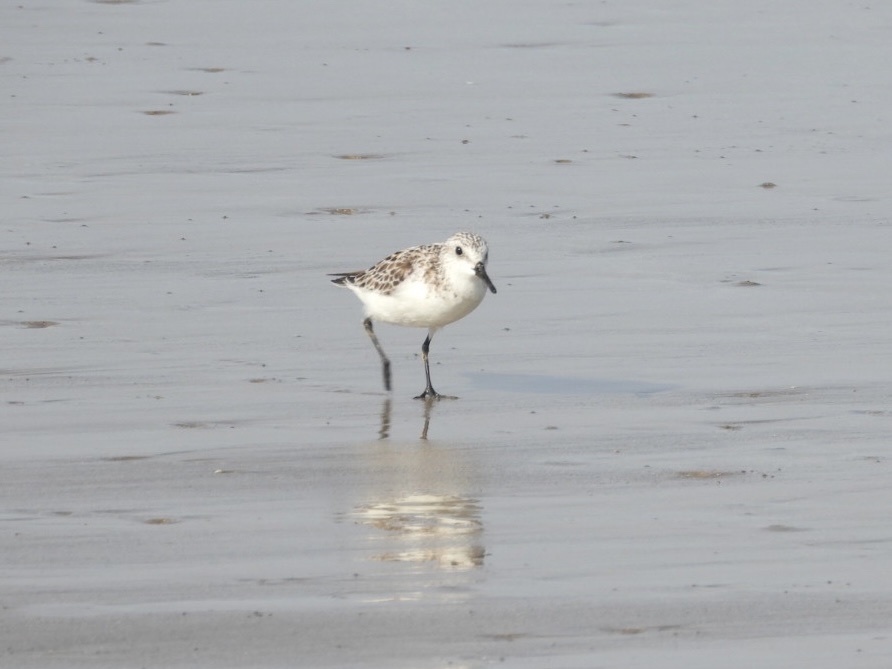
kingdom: Animalia
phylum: Chordata
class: Aves
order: Charadriiformes
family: Scolopacidae
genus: Calidris
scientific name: Calidris alba
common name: Sanderling
